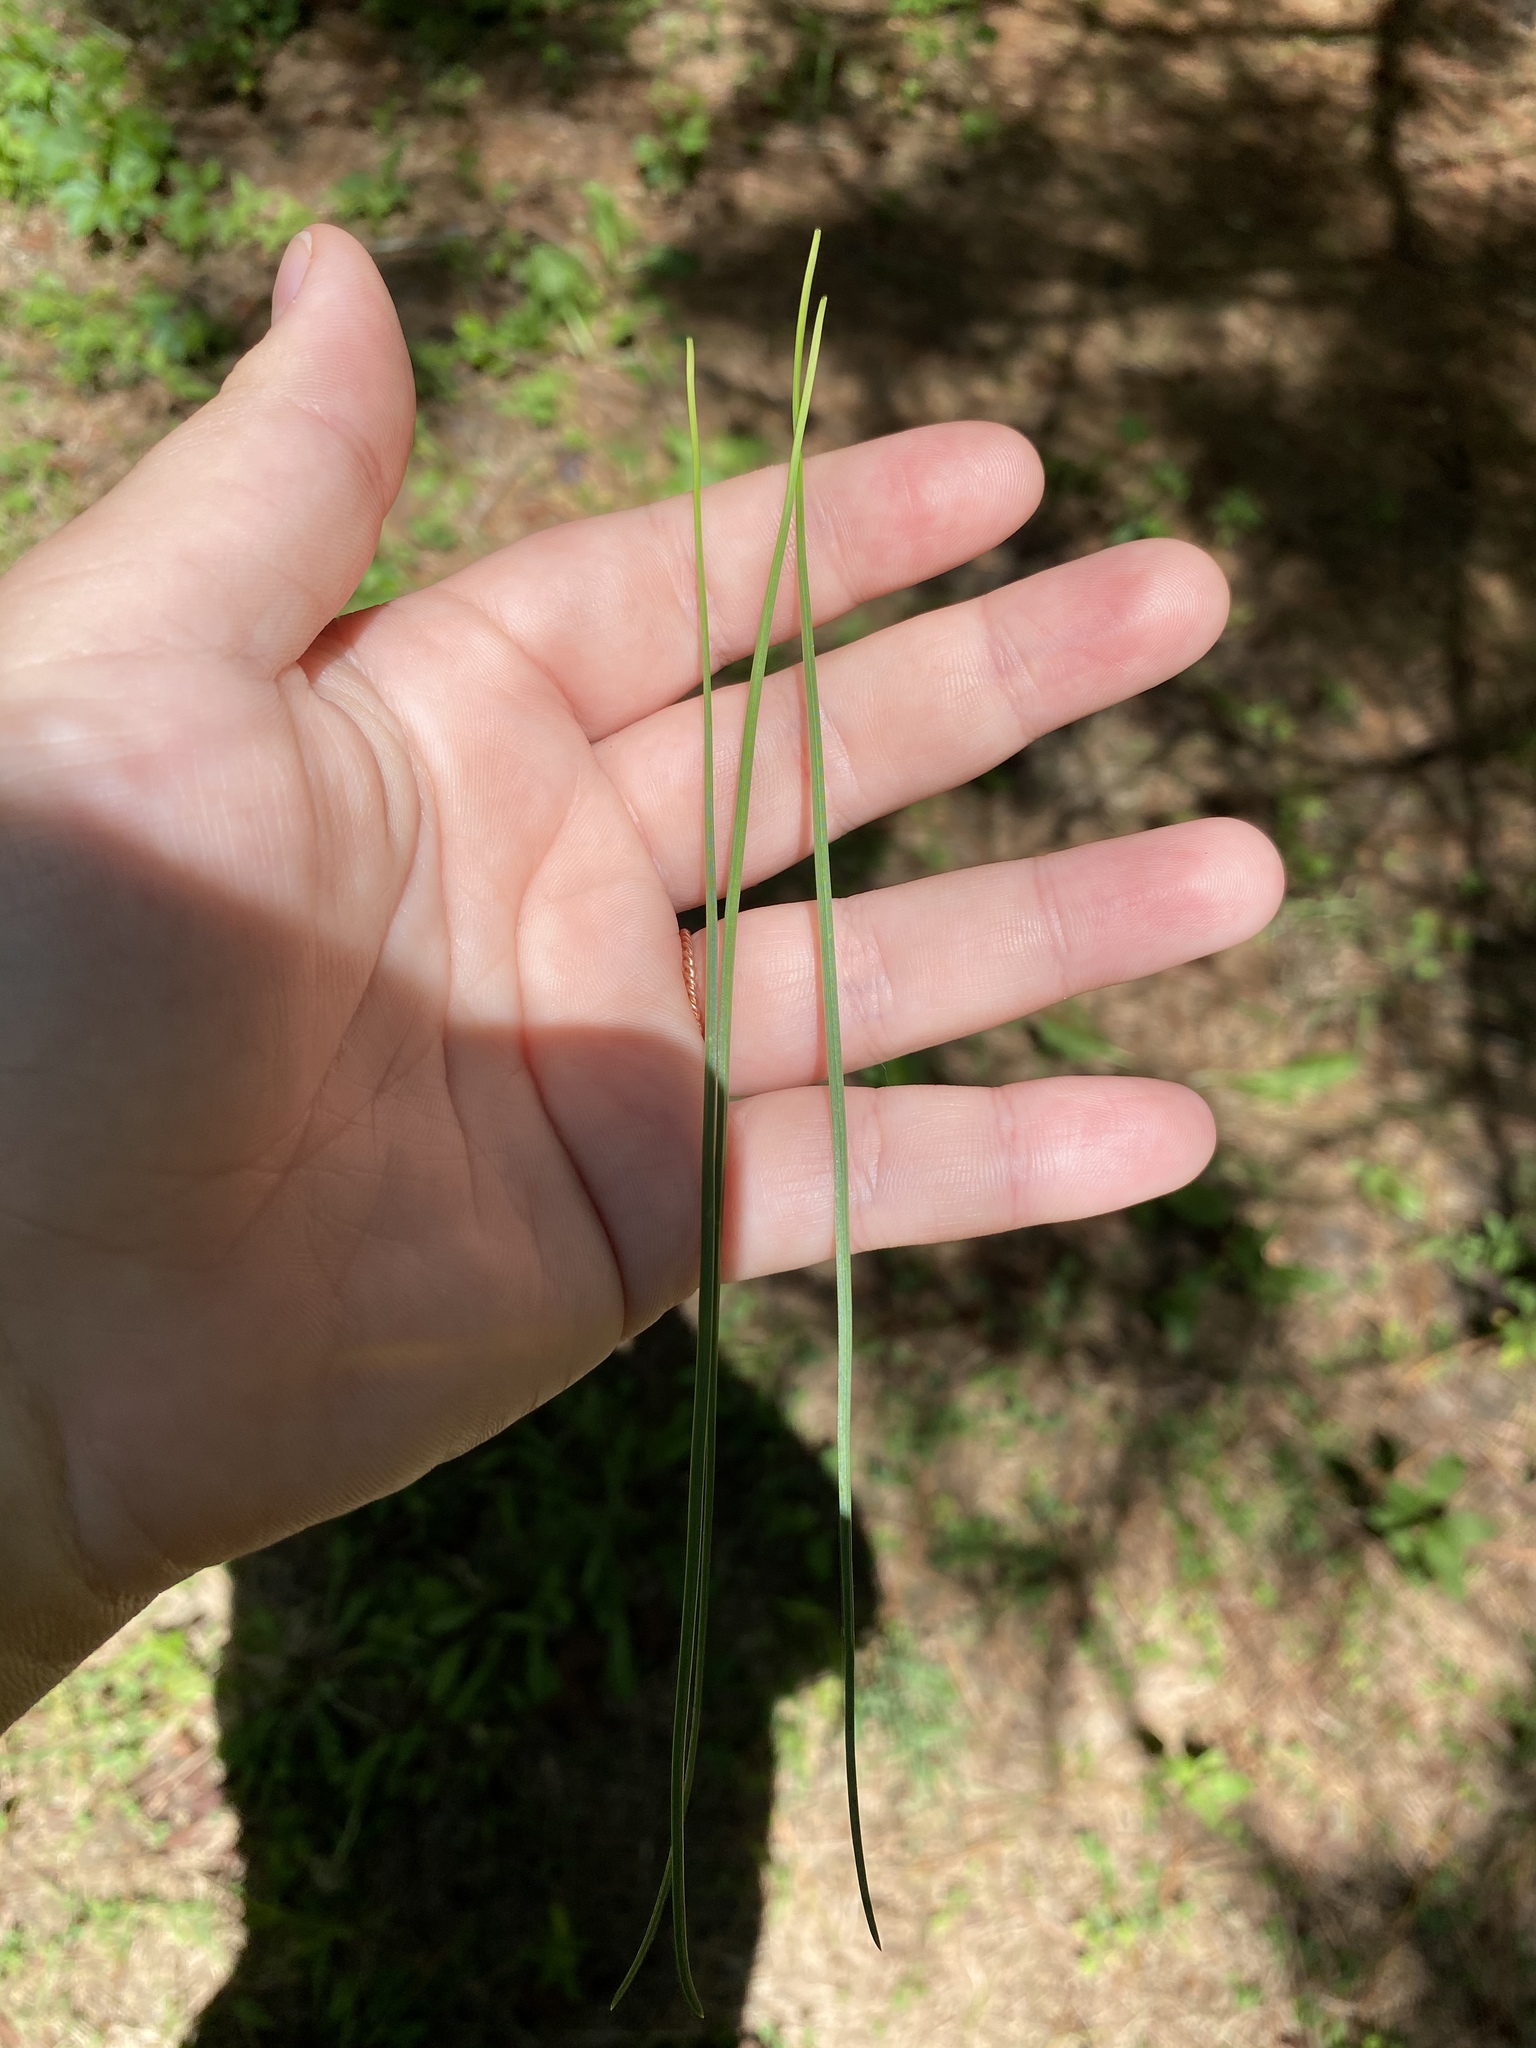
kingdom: Plantae
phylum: Tracheophyta
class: Pinopsida
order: Pinales
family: Pinaceae
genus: Pinus
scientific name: Pinus taeda
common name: Loblolly pine
